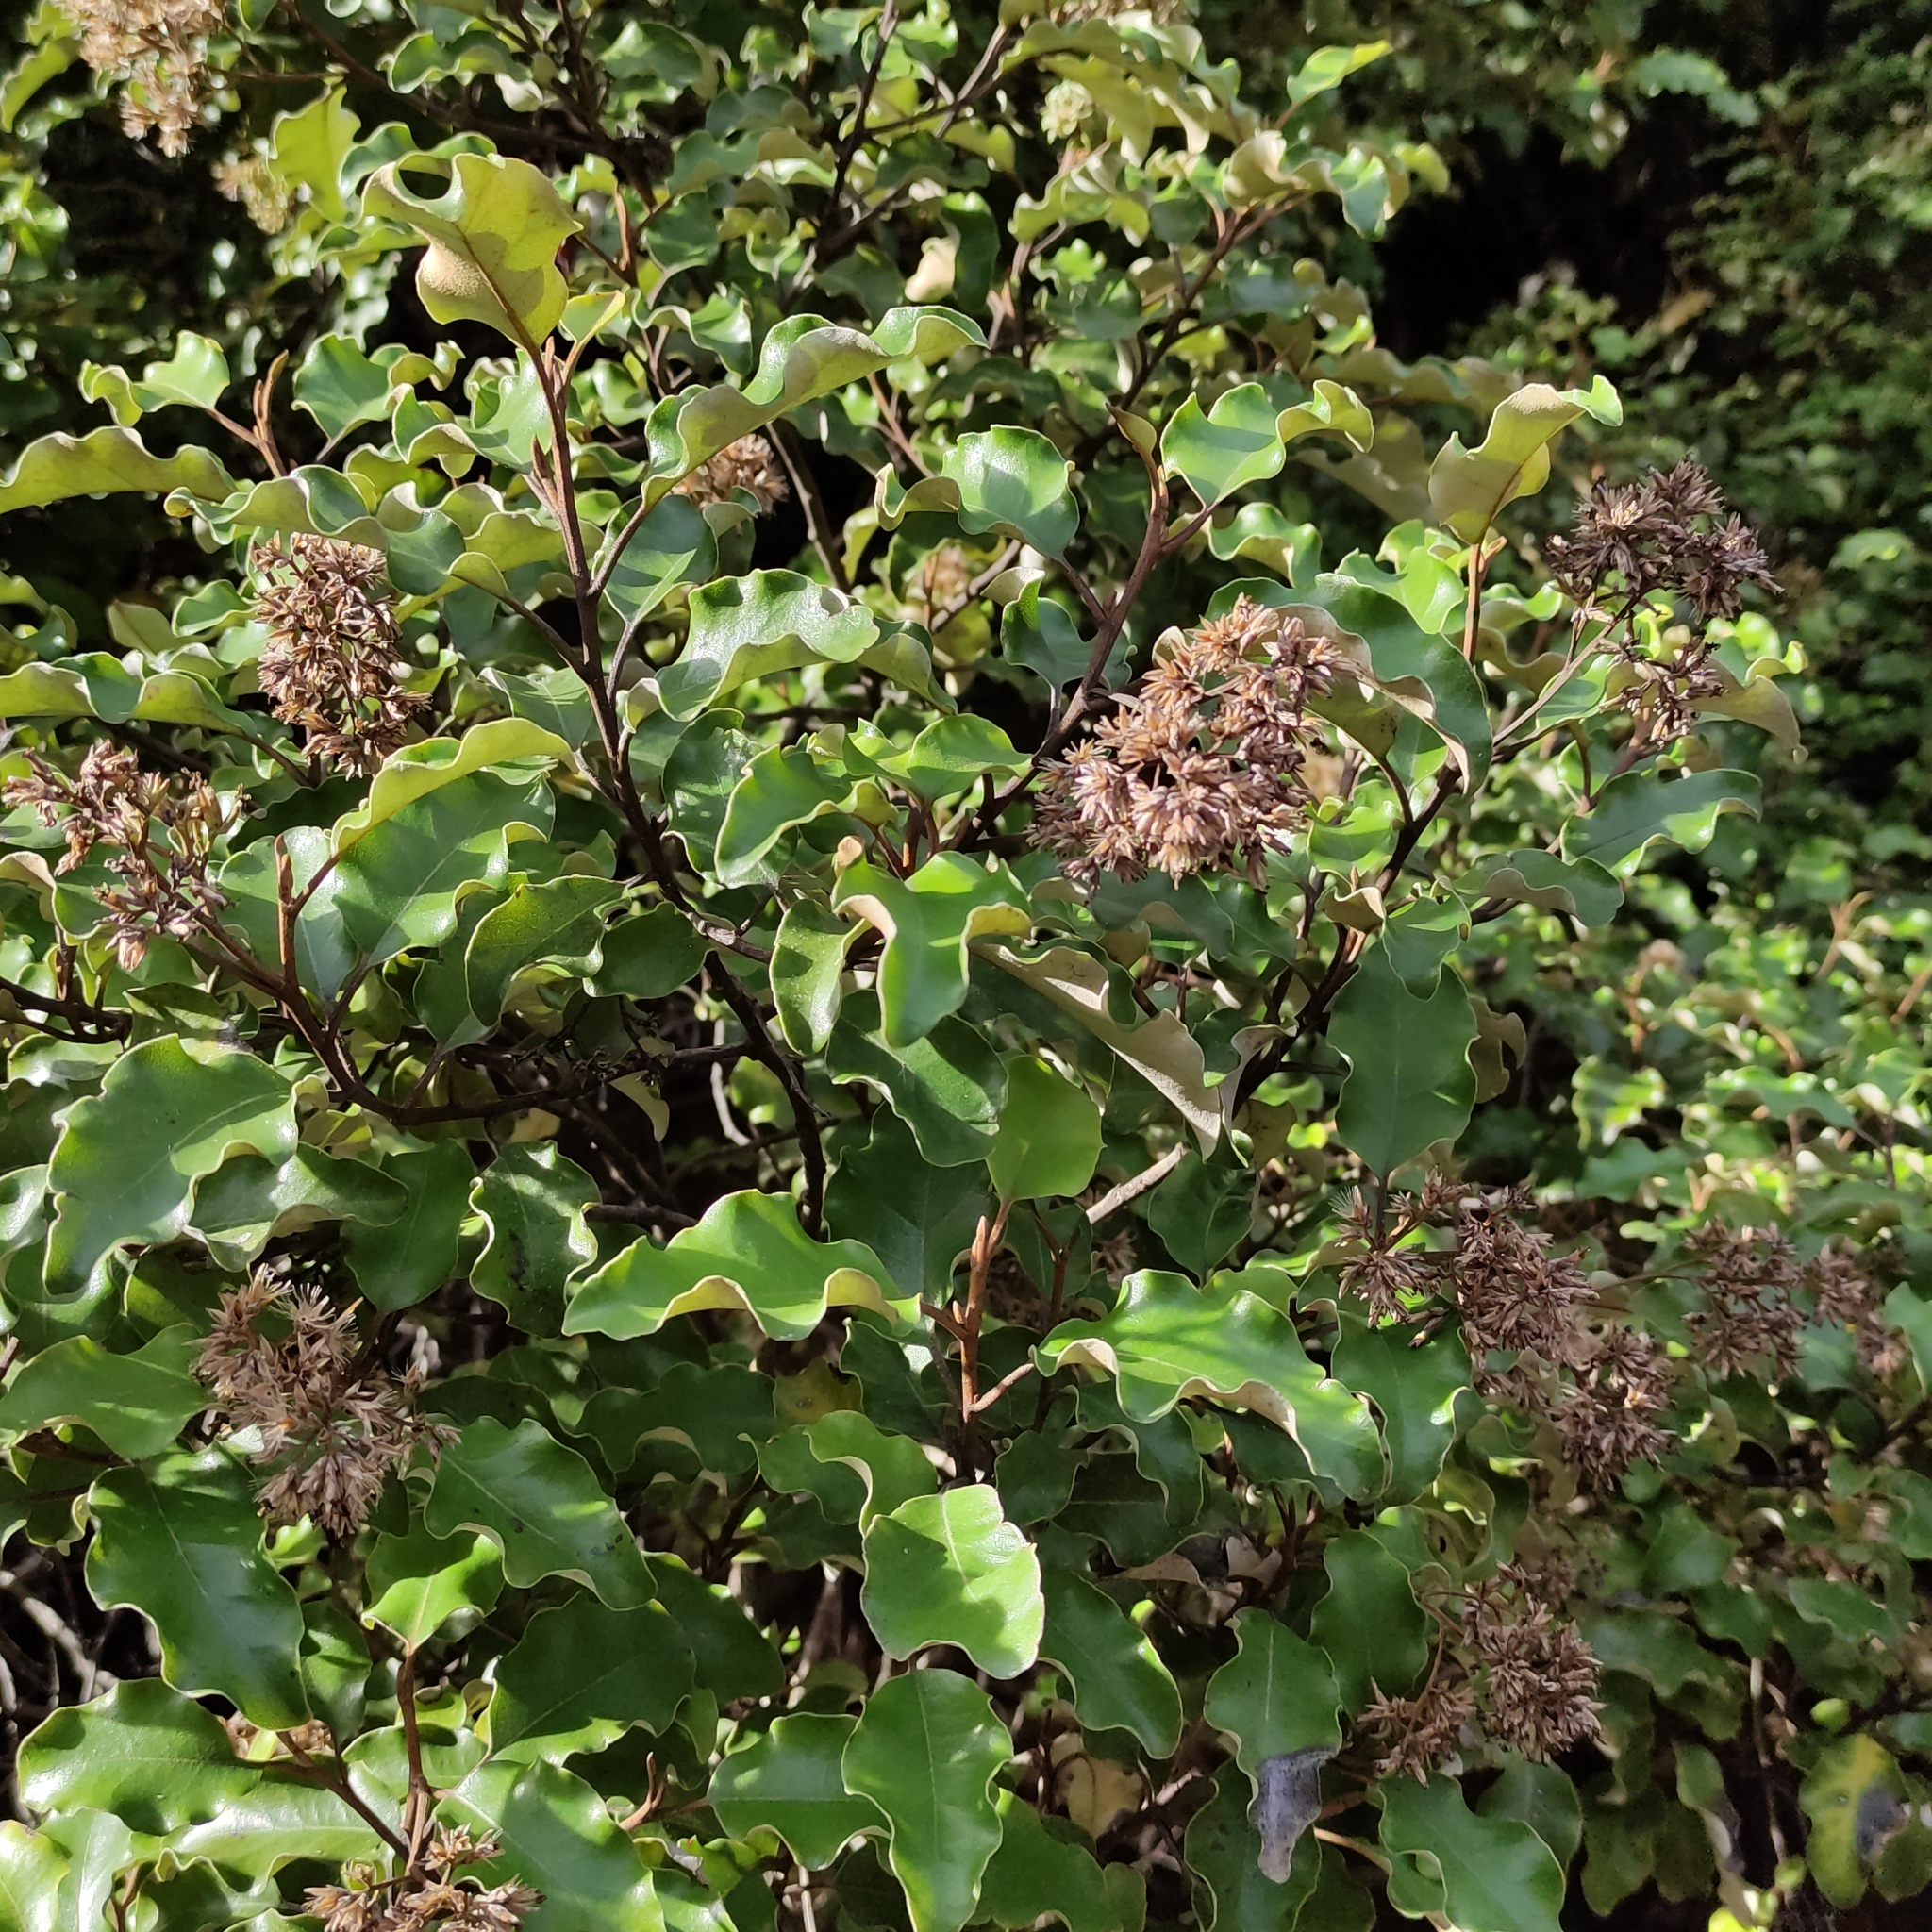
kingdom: Plantae
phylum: Tracheophyta
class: Magnoliopsida
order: Asterales
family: Asteraceae
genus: Olearia
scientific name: Olearia paniculata
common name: Akiraho
